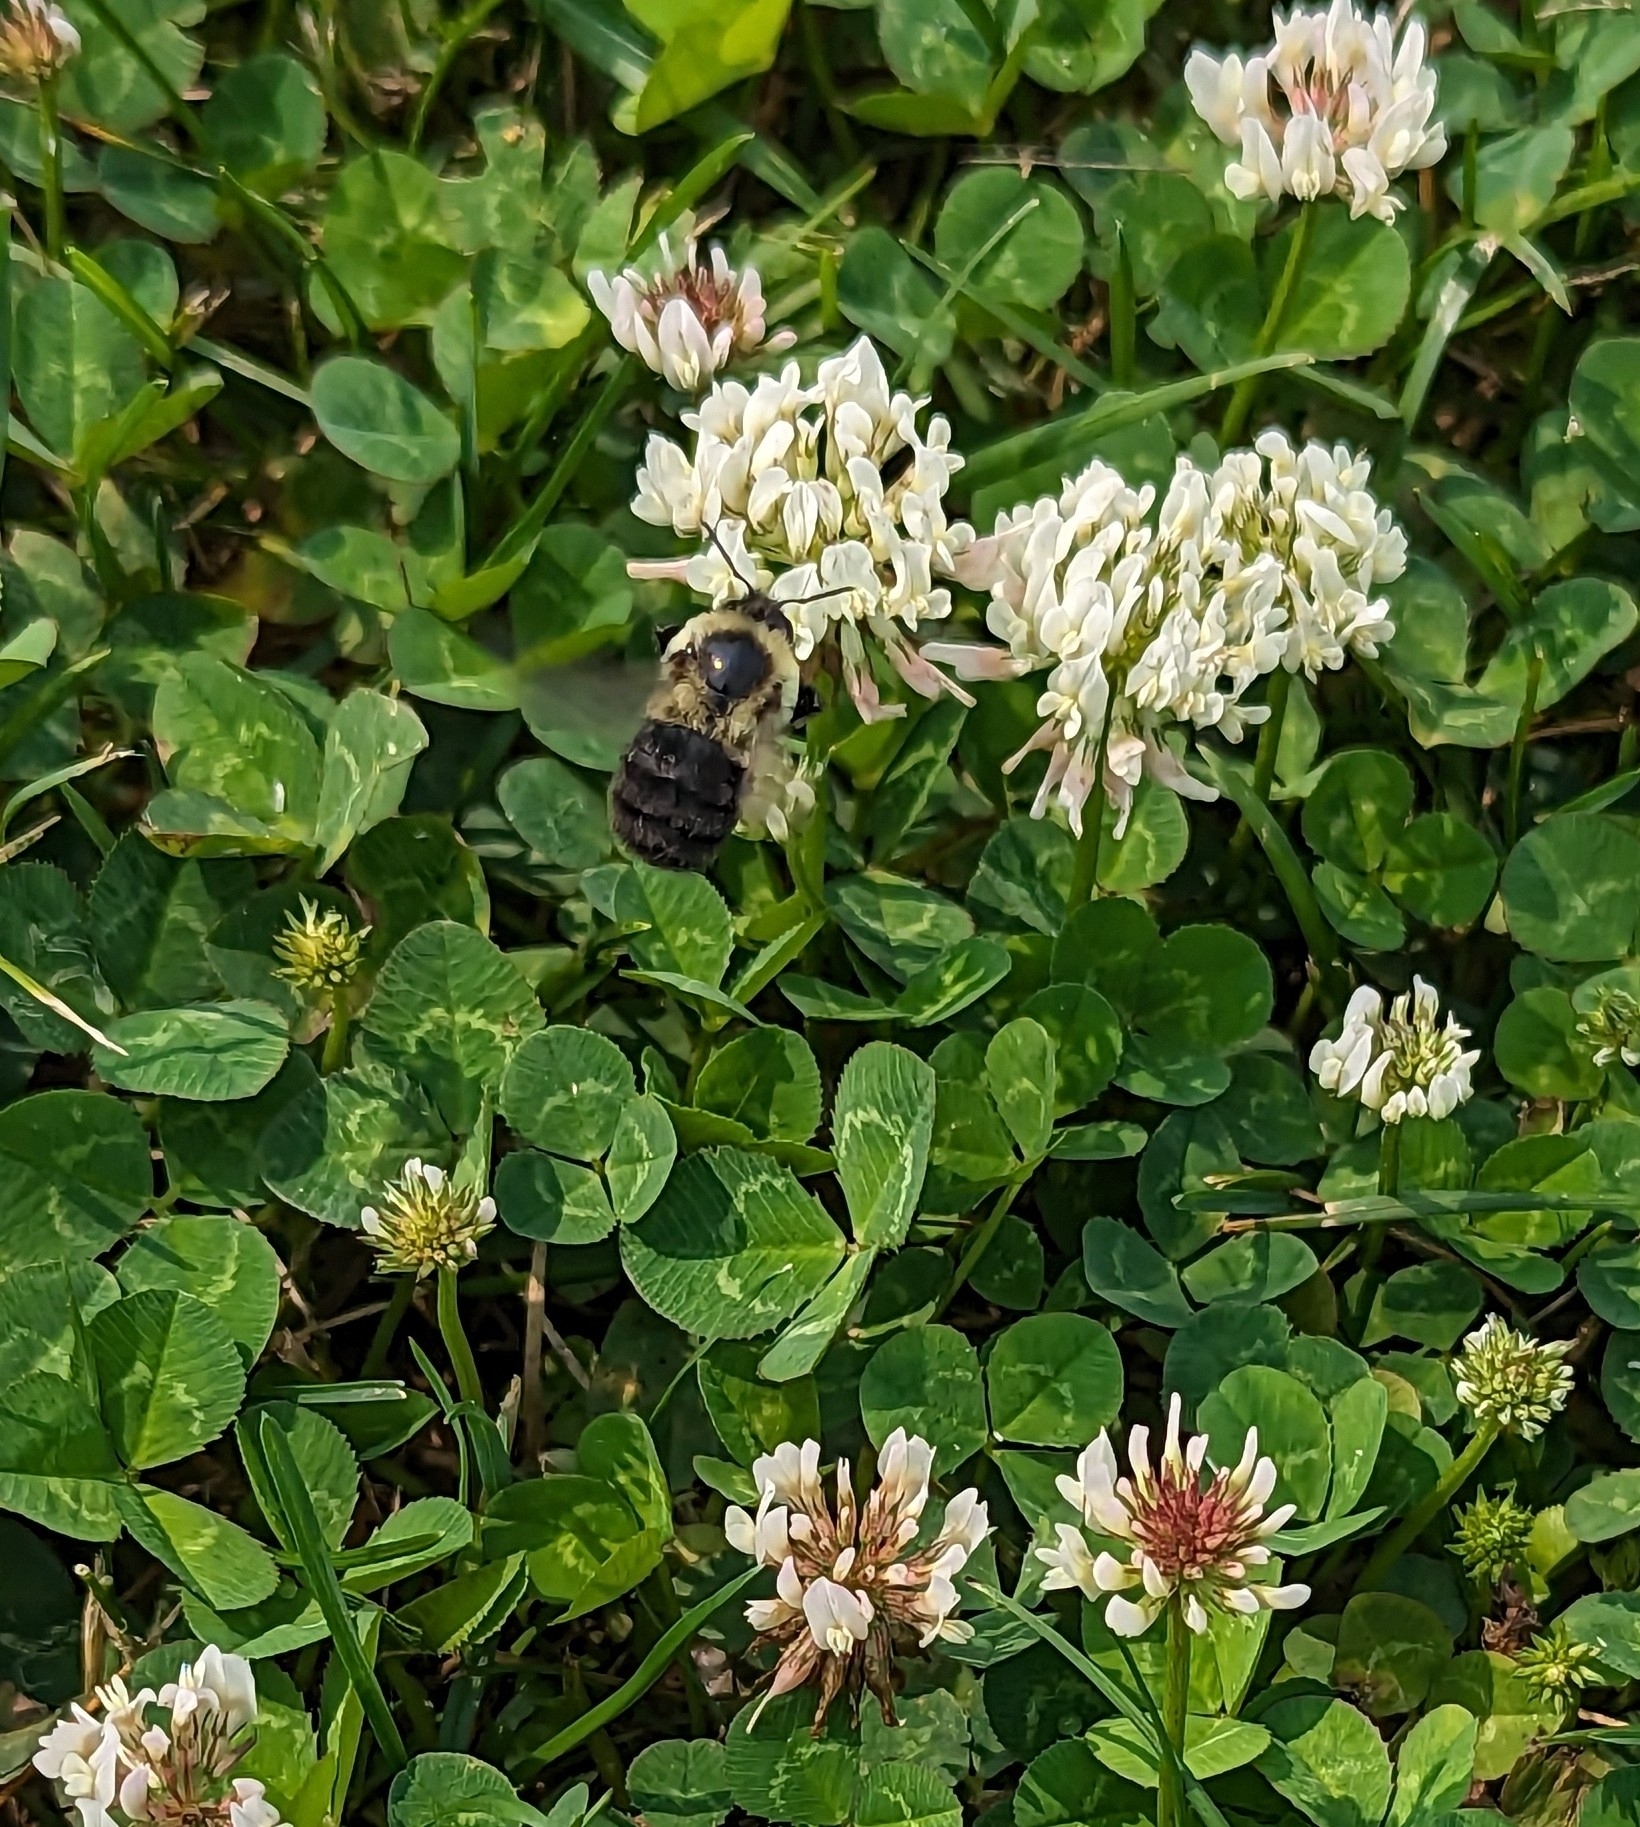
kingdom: Animalia
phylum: Arthropoda
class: Insecta
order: Hymenoptera
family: Apidae
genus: Bombus
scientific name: Bombus impatiens
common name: Common eastern bumble bee
